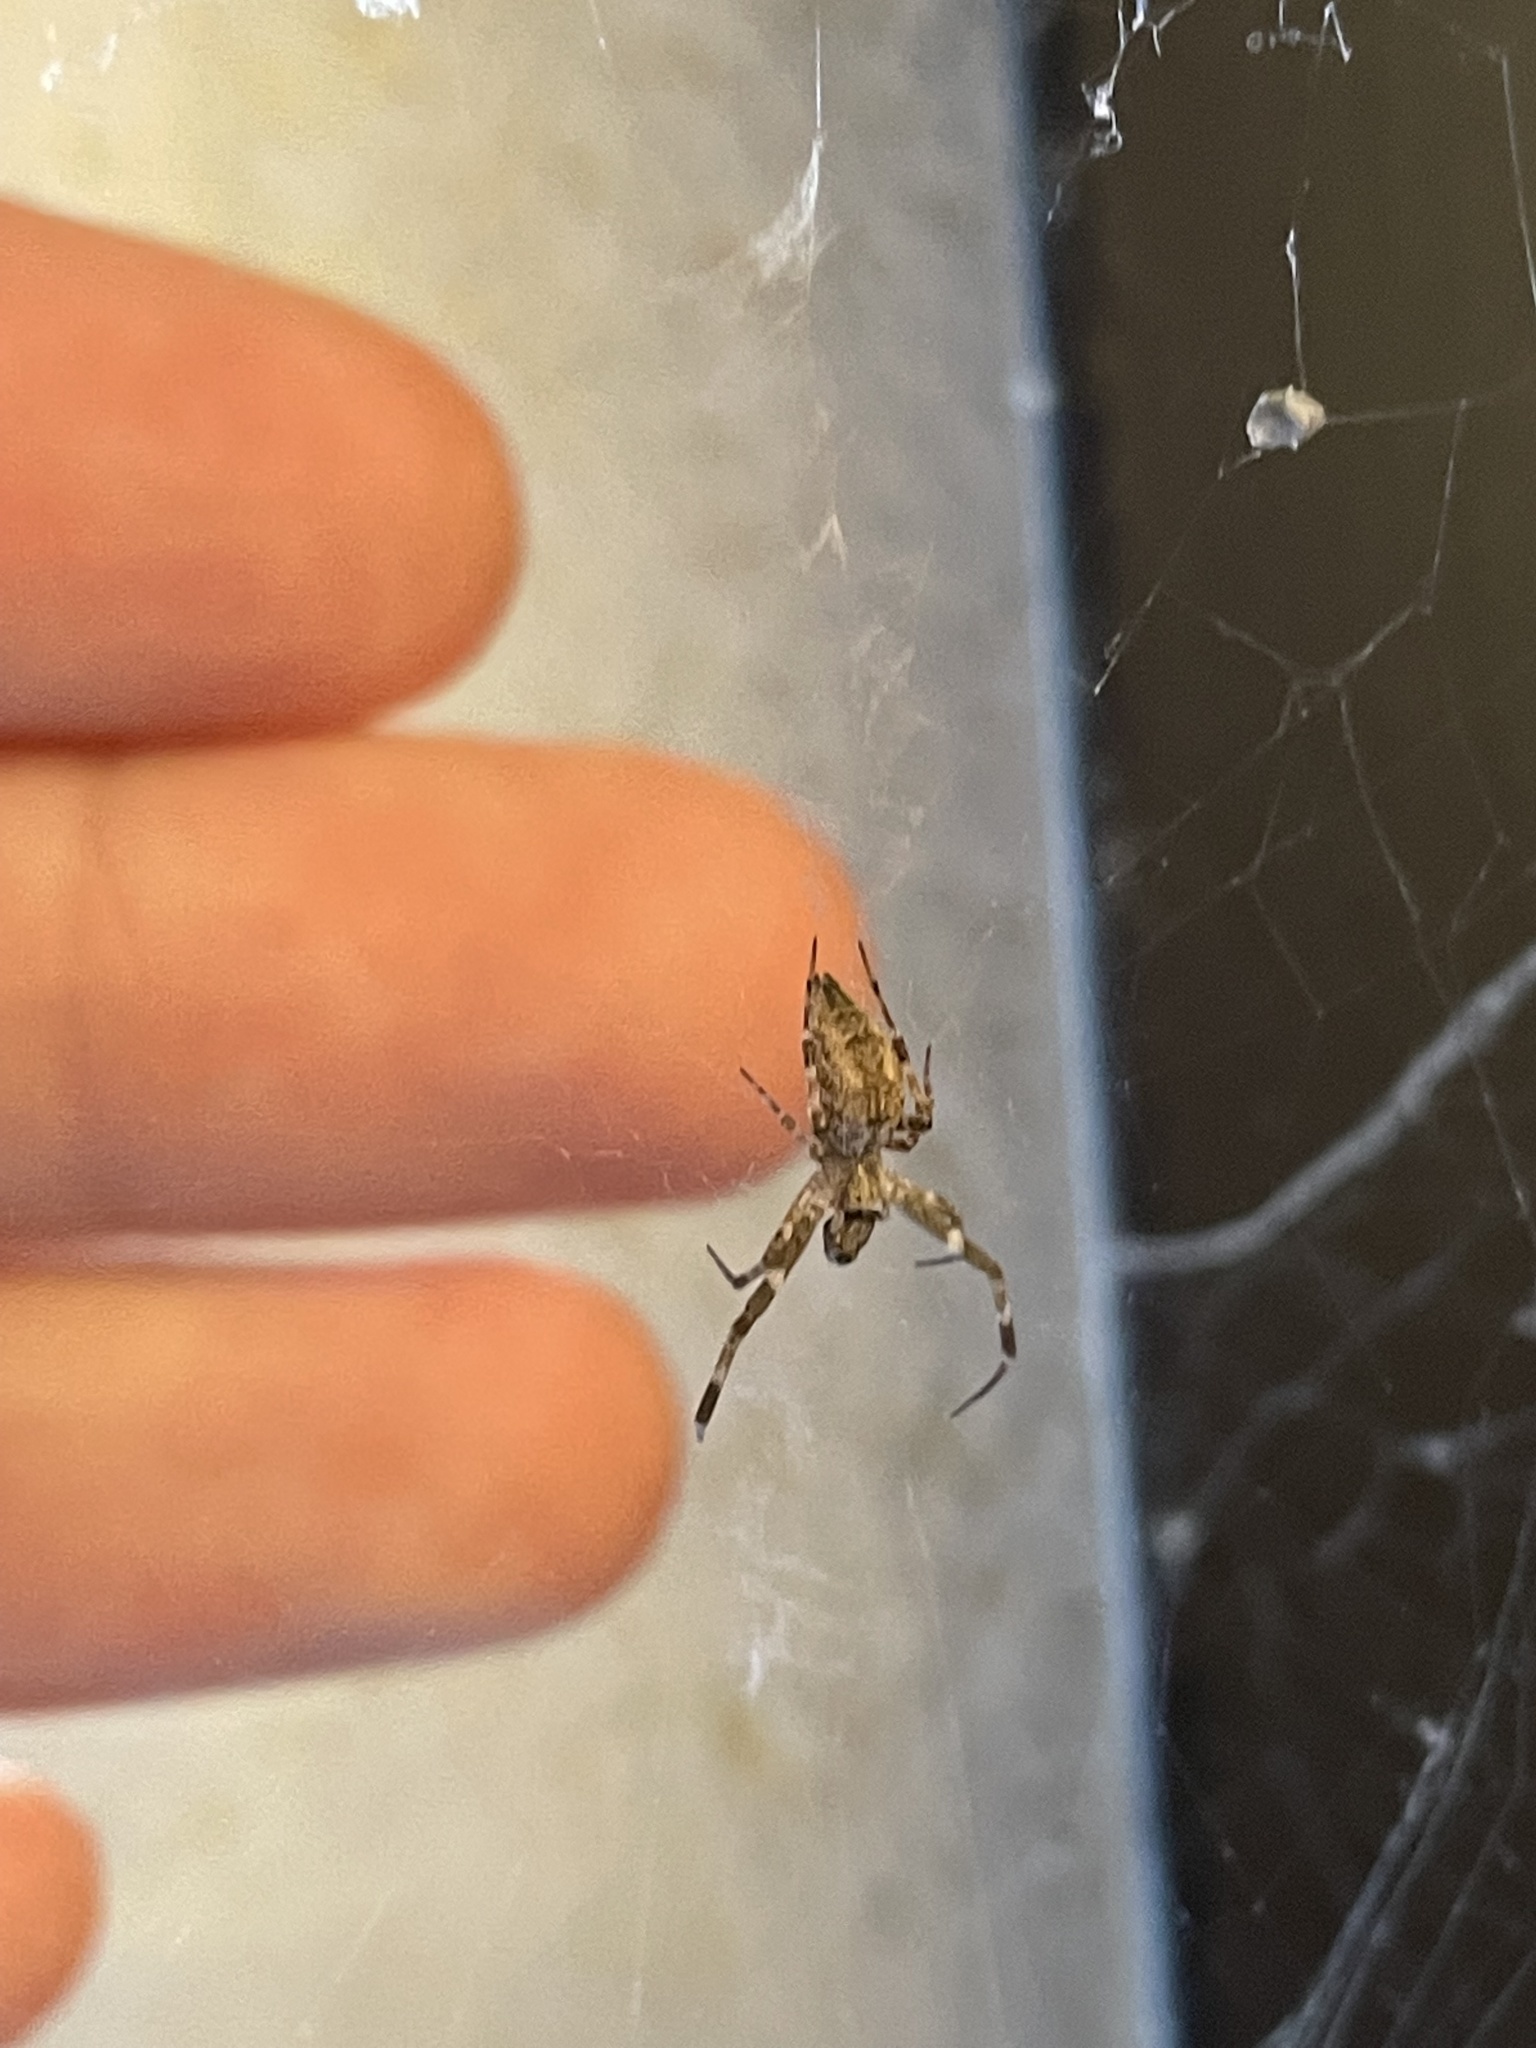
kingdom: Animalia
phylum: Arthropoda
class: Arachnida
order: Araneae
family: Uloboridae
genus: Octonoba
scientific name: Octonoba sinensis
